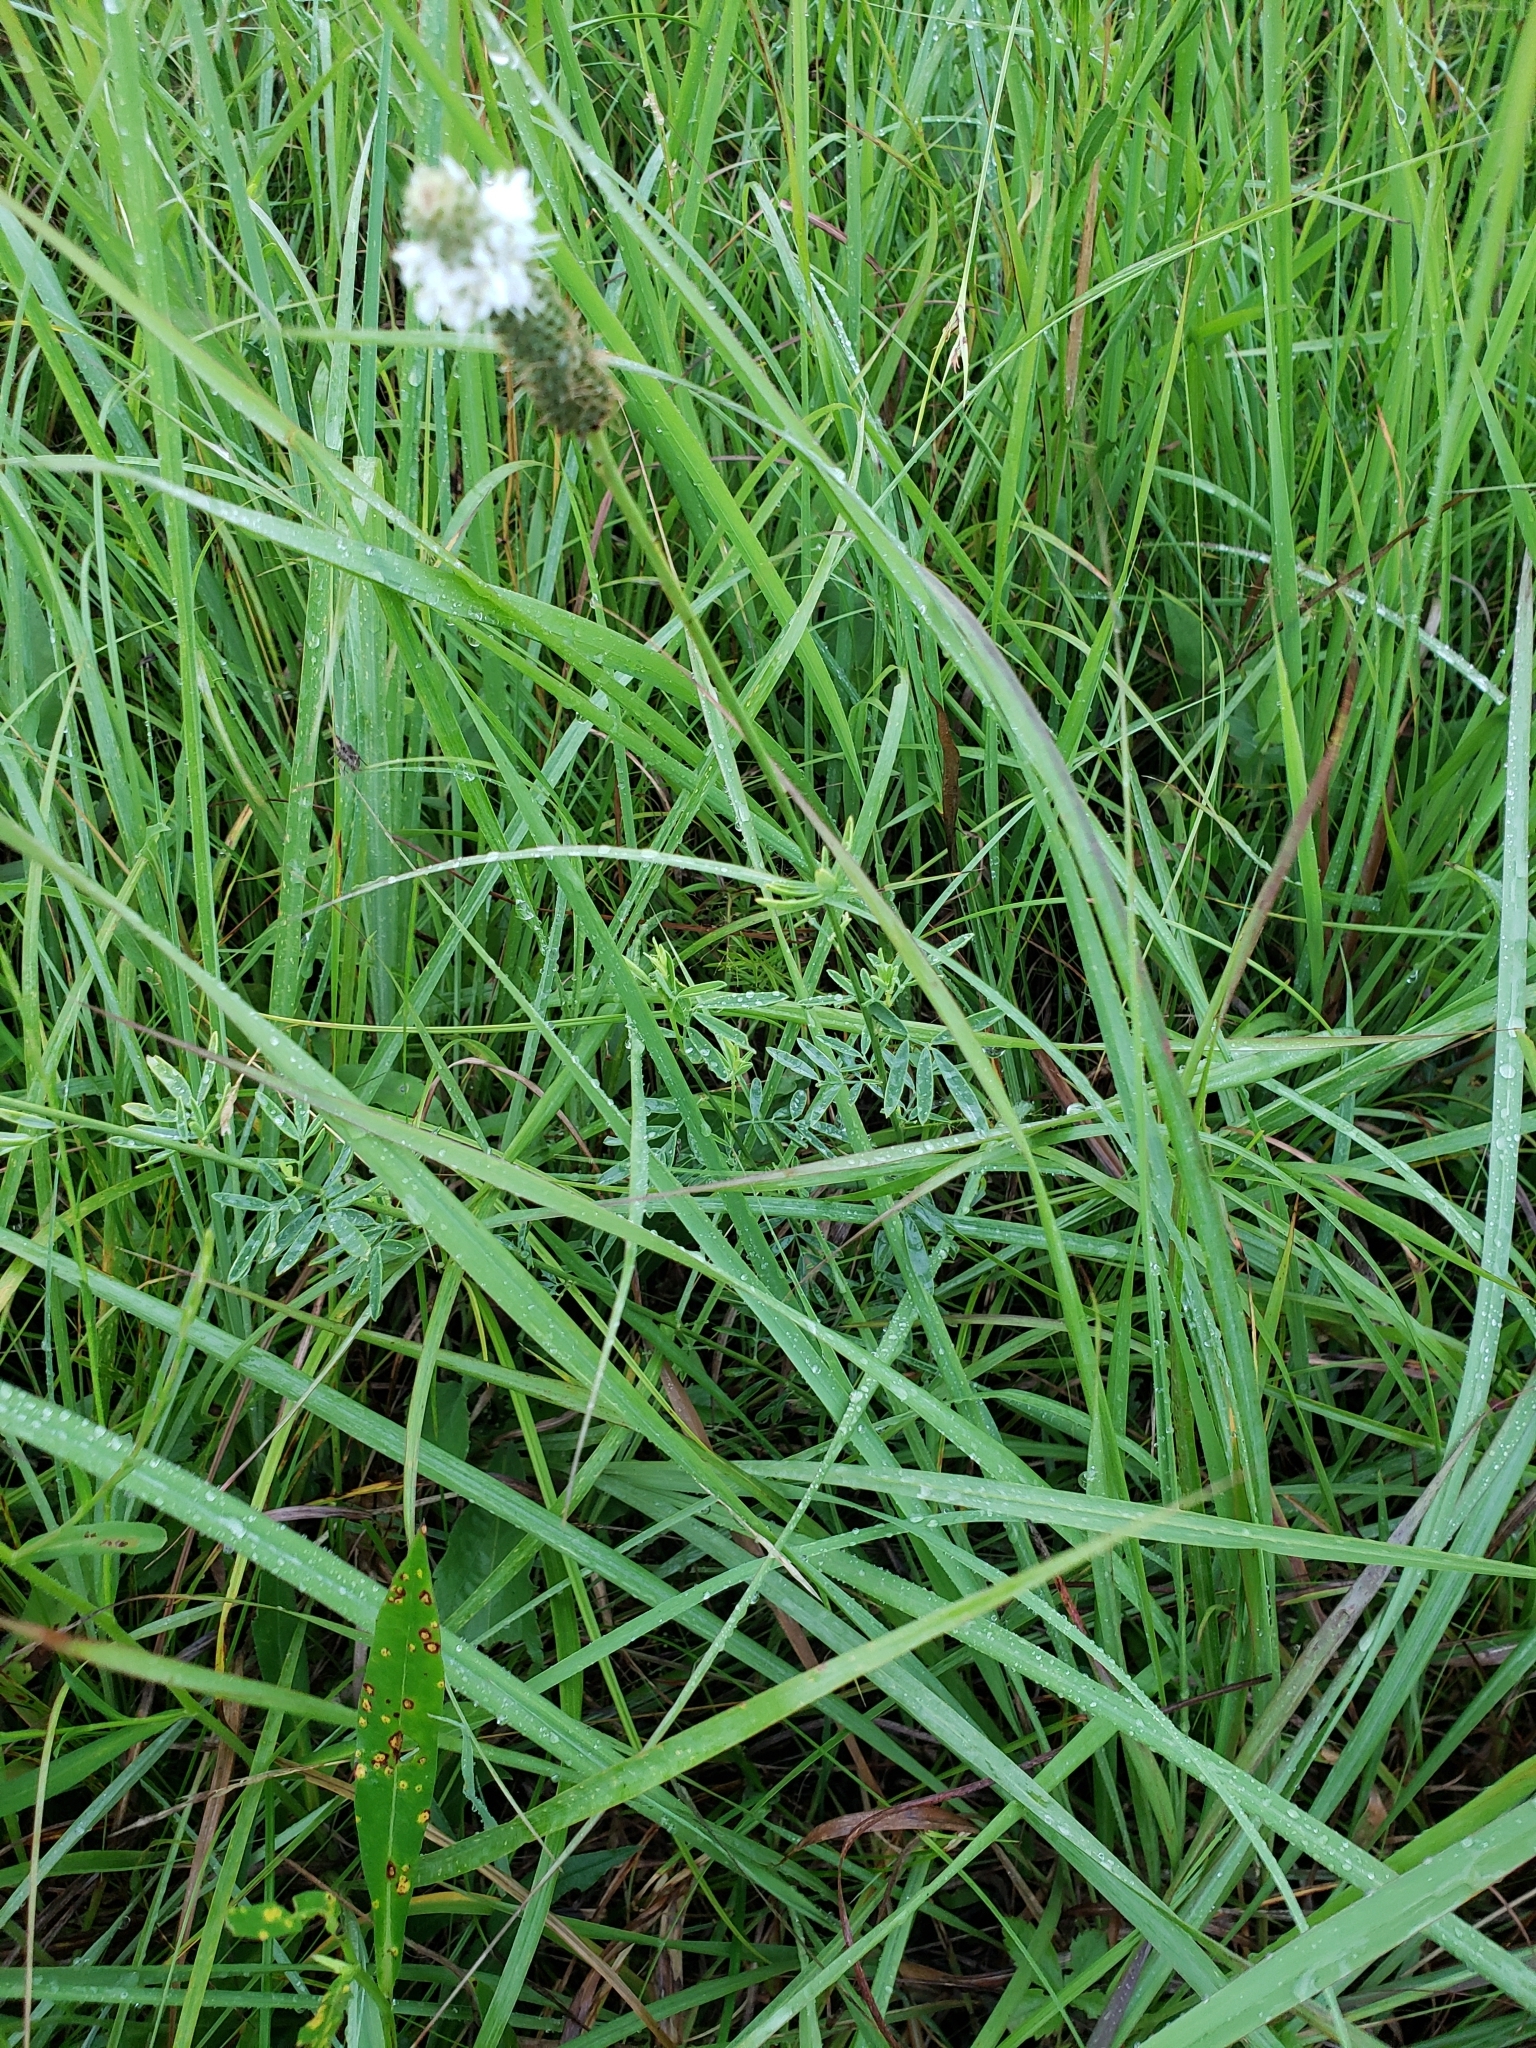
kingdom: Plantae
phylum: Tracheophyta
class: Magnoliopsida
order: Lamiales
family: Plantaginaceae
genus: Plantago
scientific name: Plantago lanceolata
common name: Ribwort plantain
